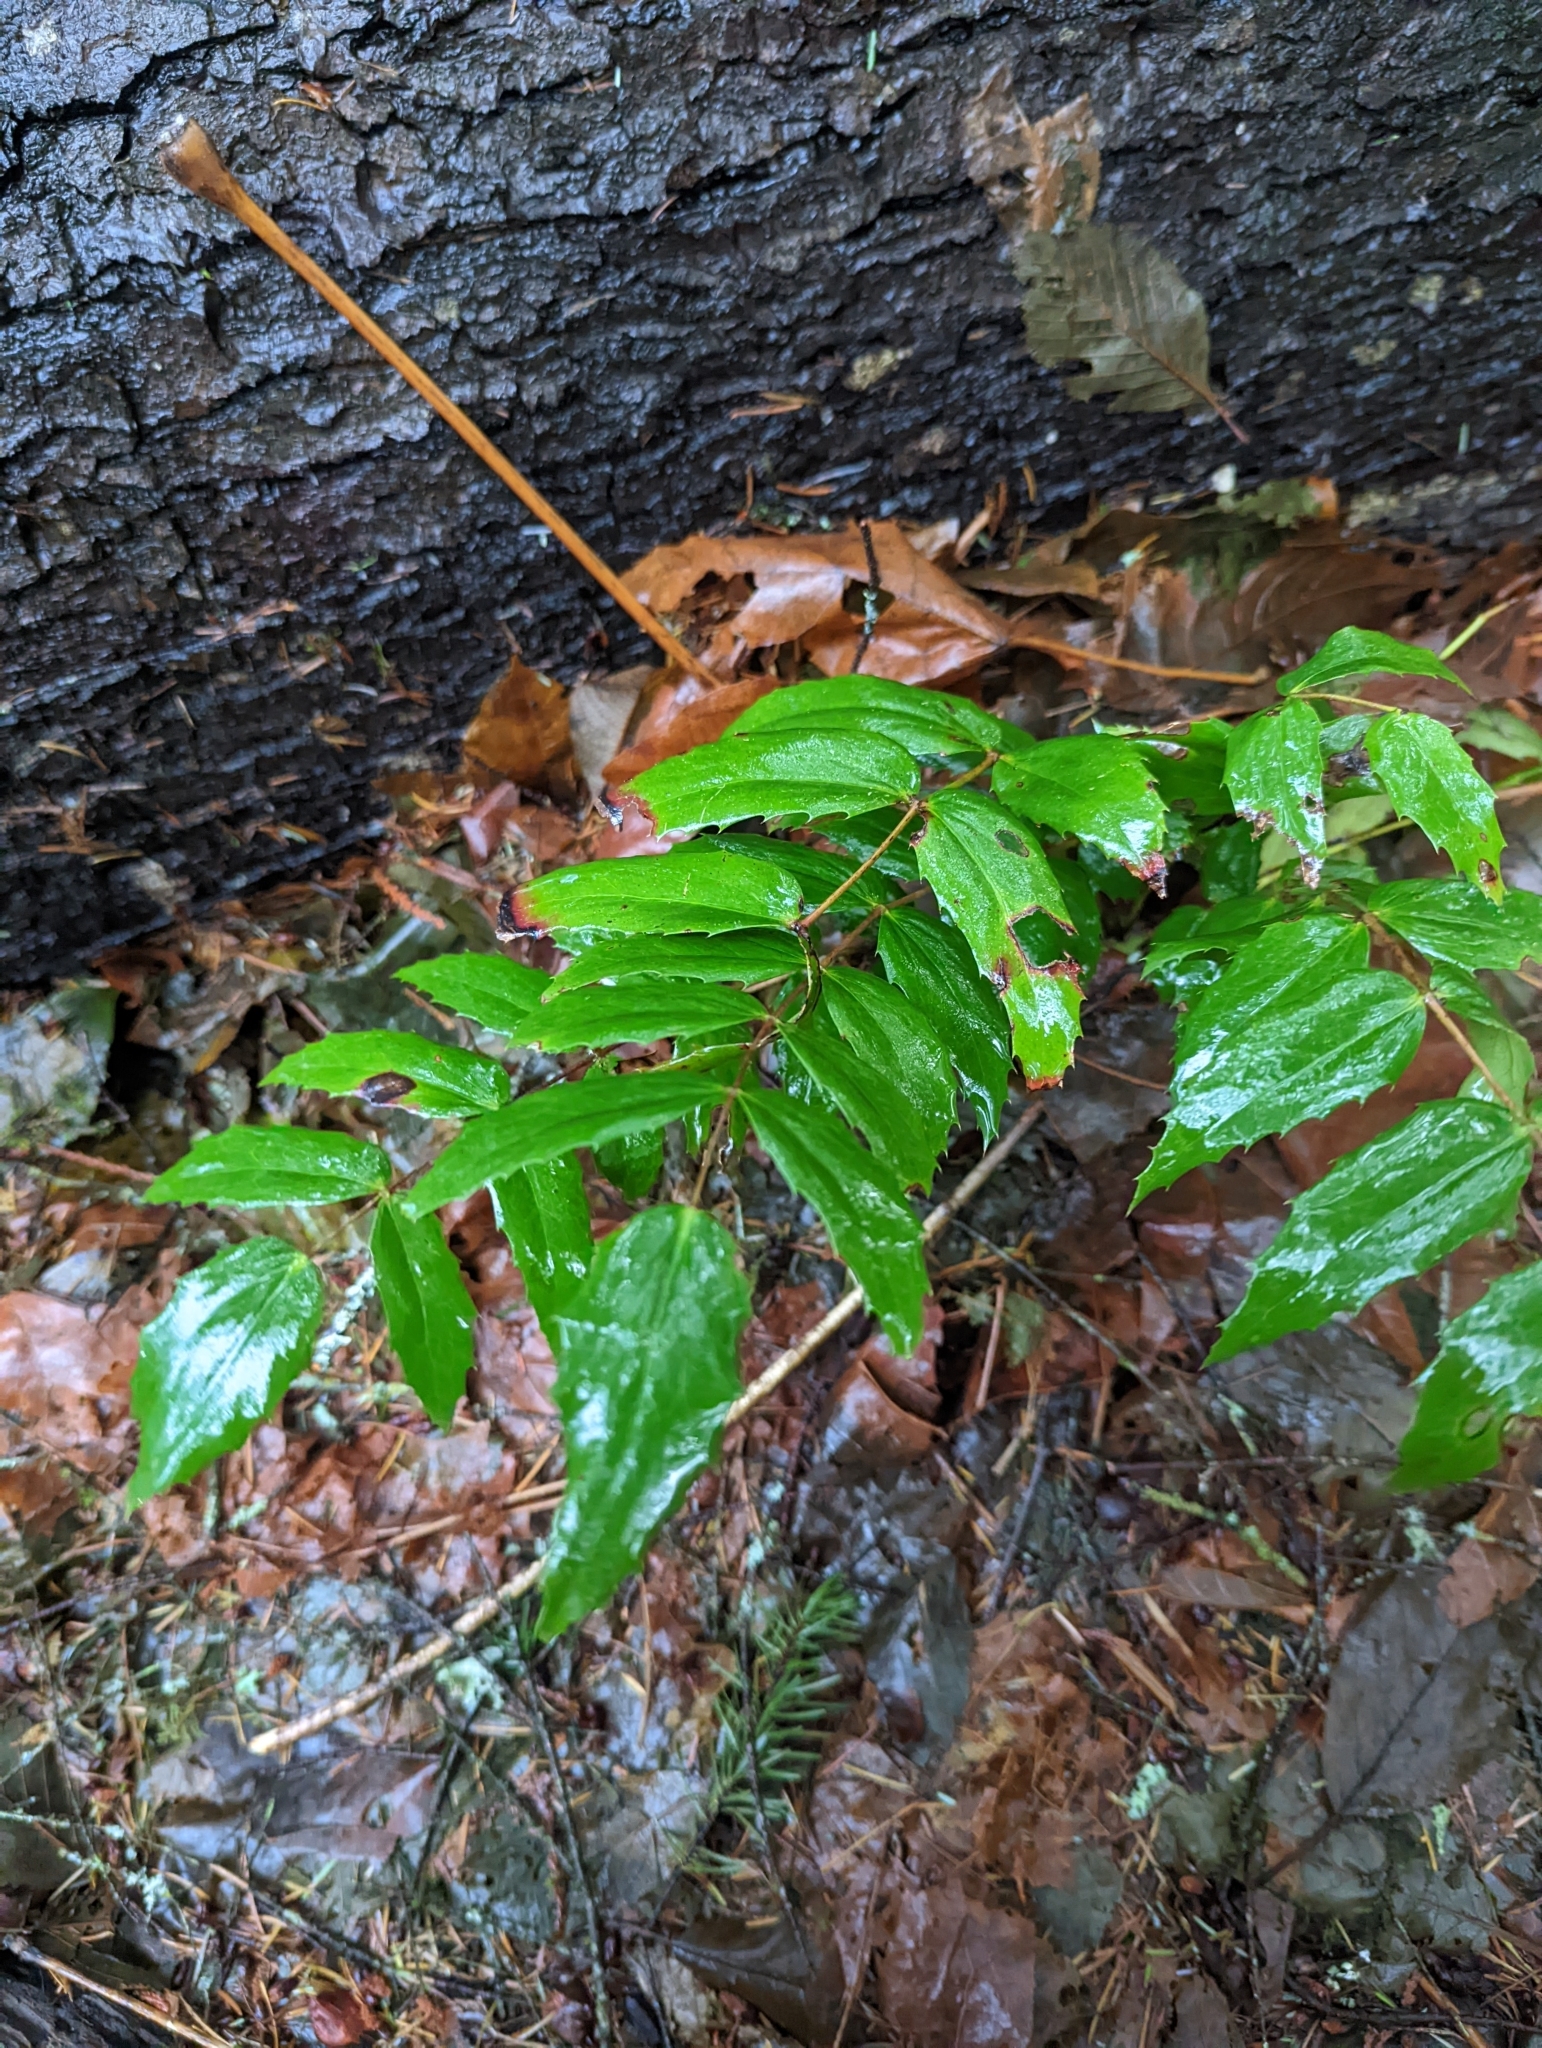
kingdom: Plantae
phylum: Tracheophyta
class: Magnoliopsida
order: Ranunculales
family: Berberidaceae
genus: Mahonia
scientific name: Mahonia nervosa
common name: Cascade oregon-grape
